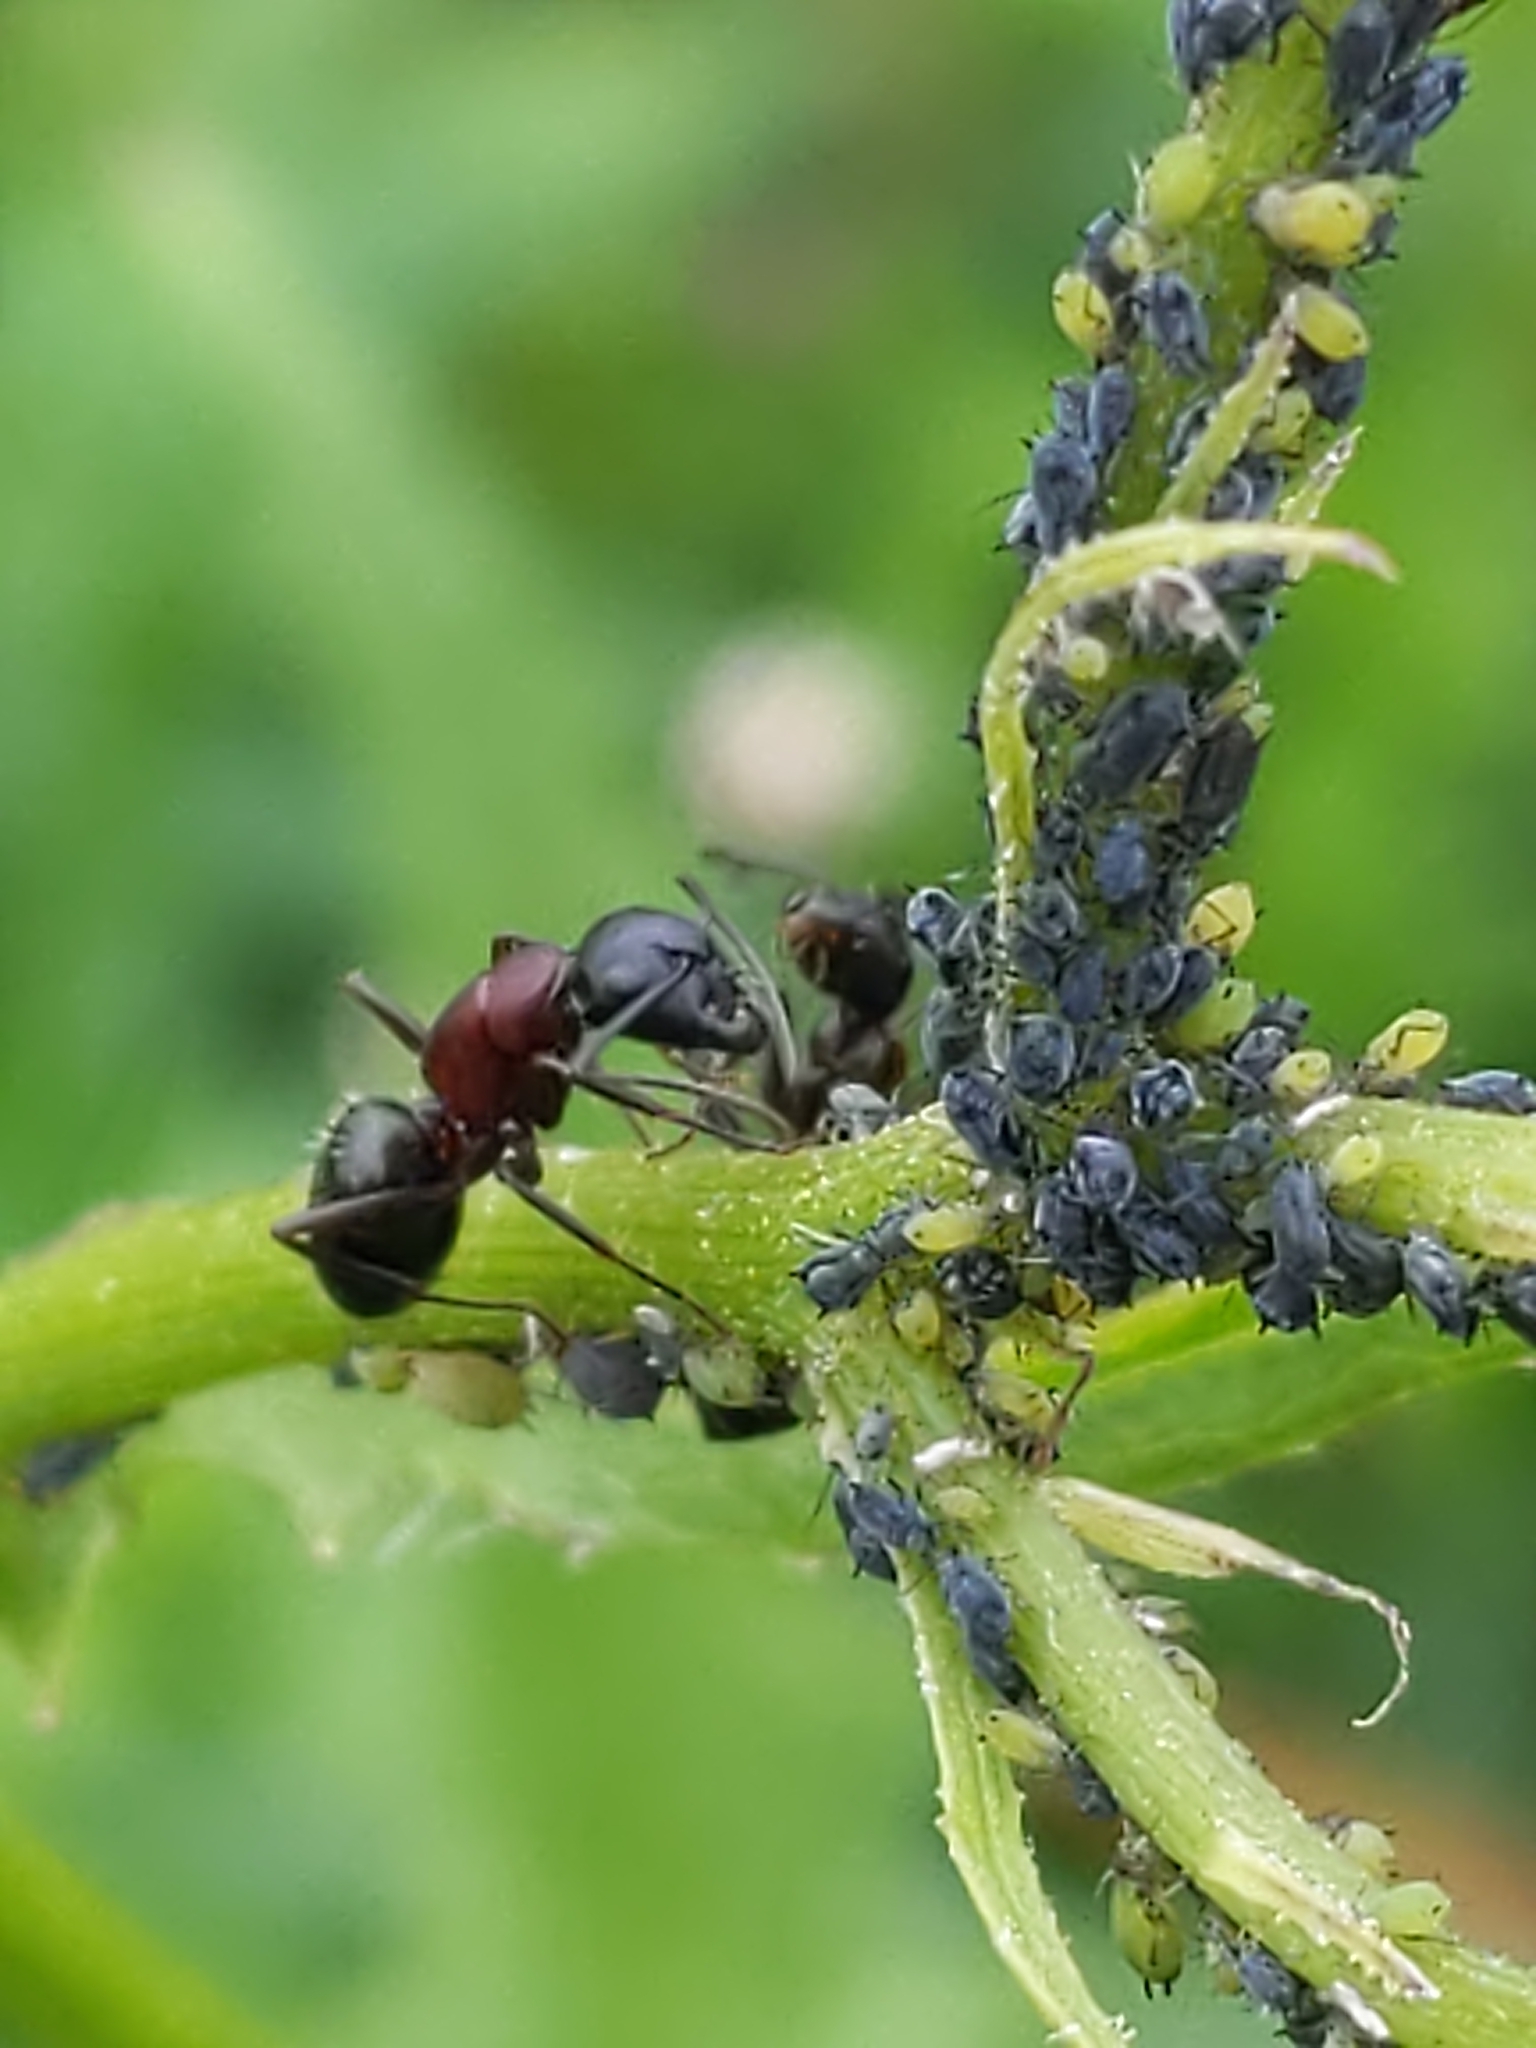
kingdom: Animalia
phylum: Arthropoda
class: Insecta
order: Hymenoptera
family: Formicidae
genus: Camponotus
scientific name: Camponotus novaeboracensis
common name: New york carpenter ant
